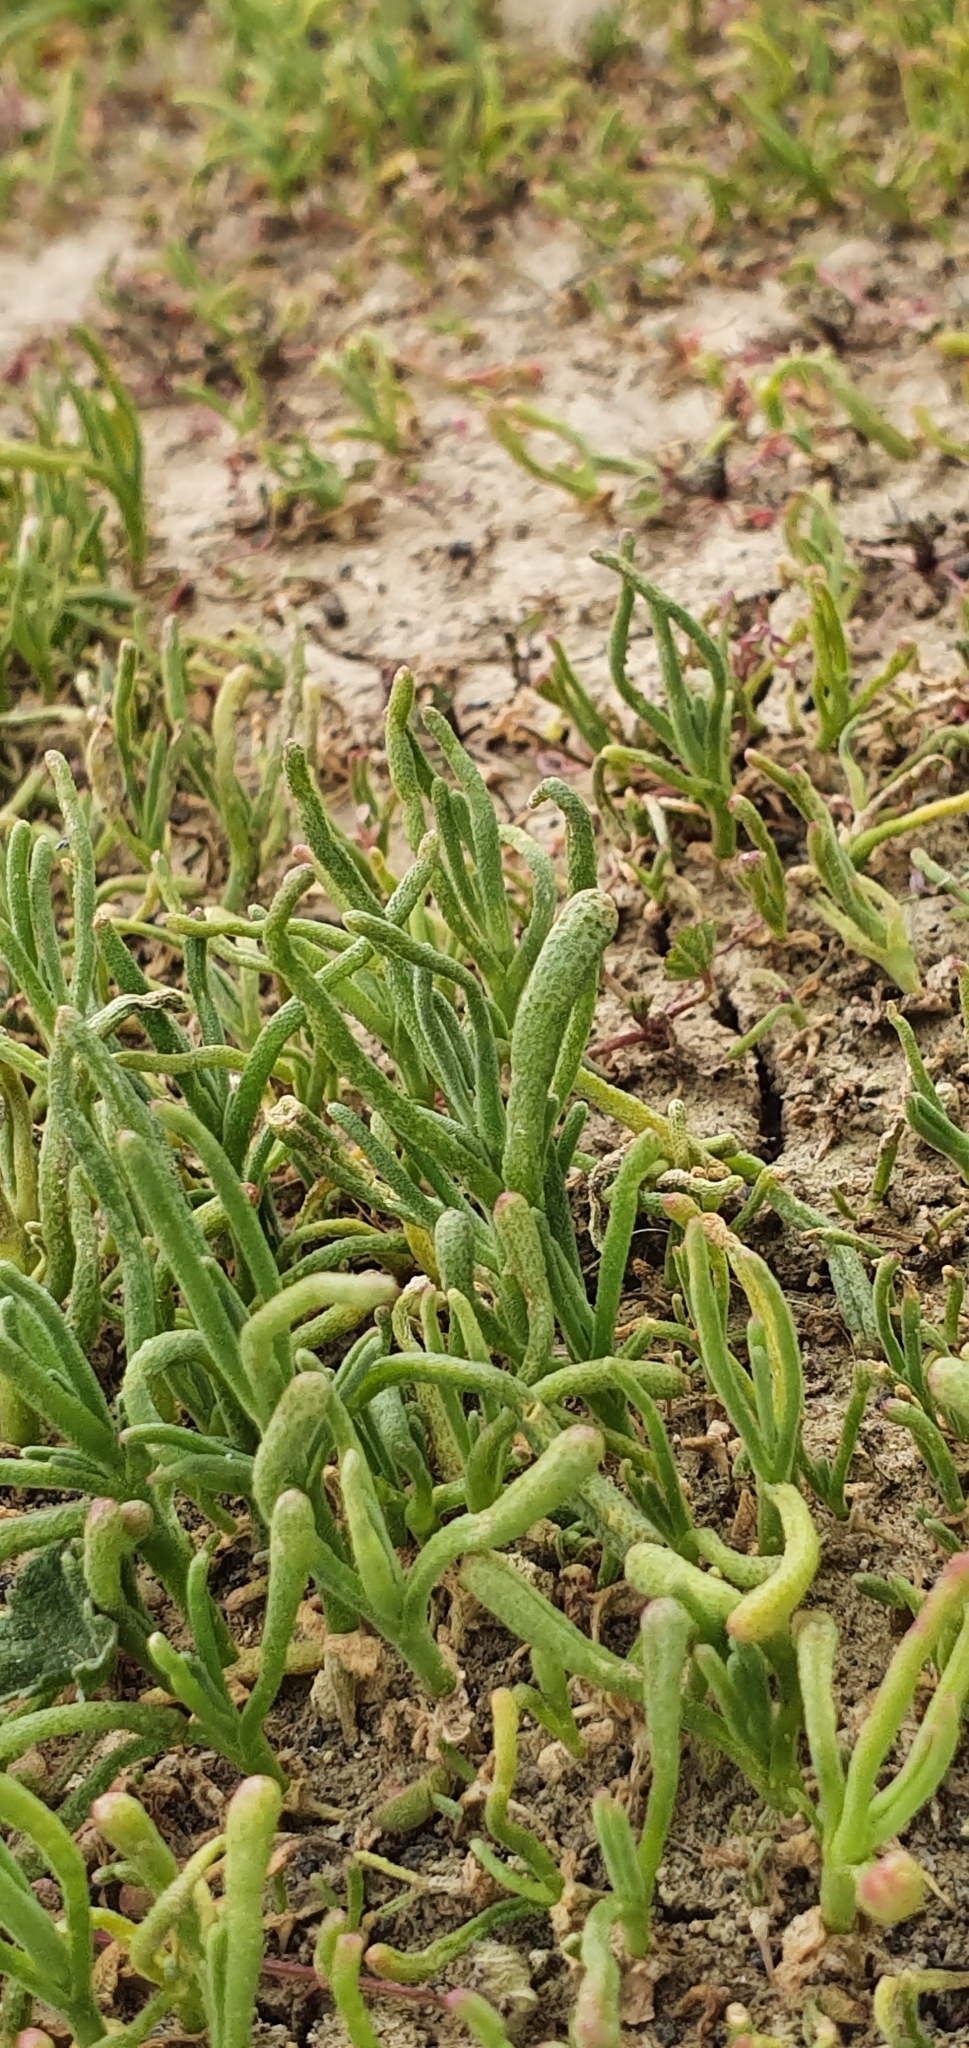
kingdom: Plantae
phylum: Tracheophyta
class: Magnoliopsida
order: Caryophyllales
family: Aizoaceae
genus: Mesembryanthemum
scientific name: Mesembryanthemum nodiflorum
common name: Slenderleaf iceplant
